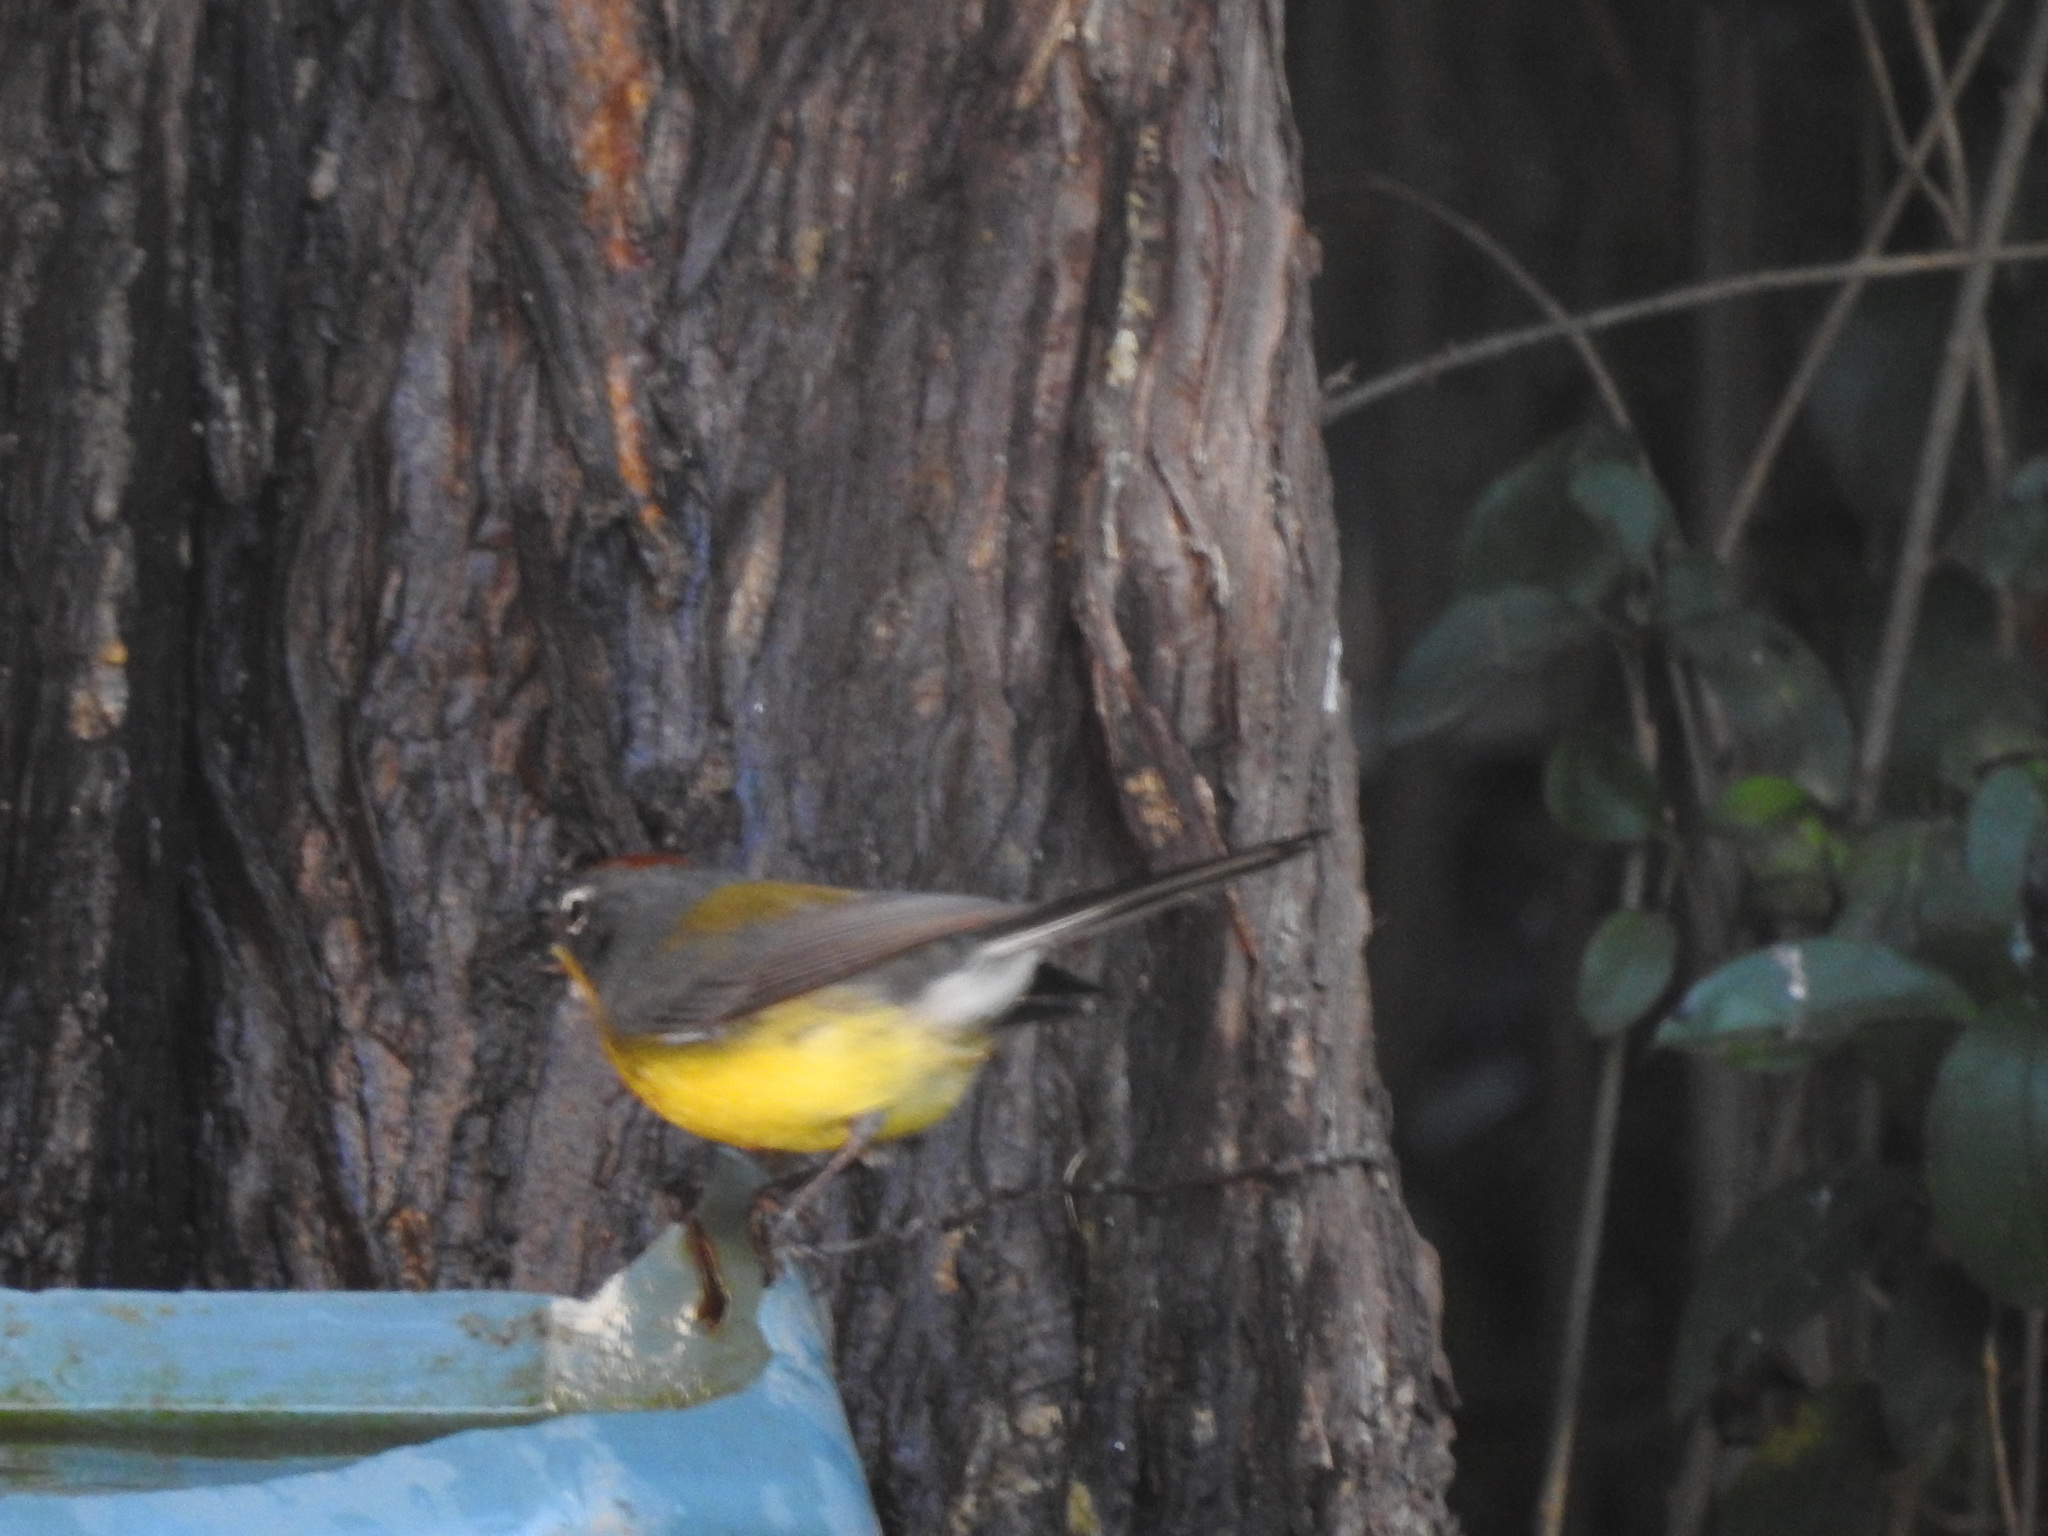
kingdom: Animalia
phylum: Chordata
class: Aves
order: Passeriformes
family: Parulidae
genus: Myioborus
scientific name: Myioborus brunniceps
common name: Brown-capped whitestart
